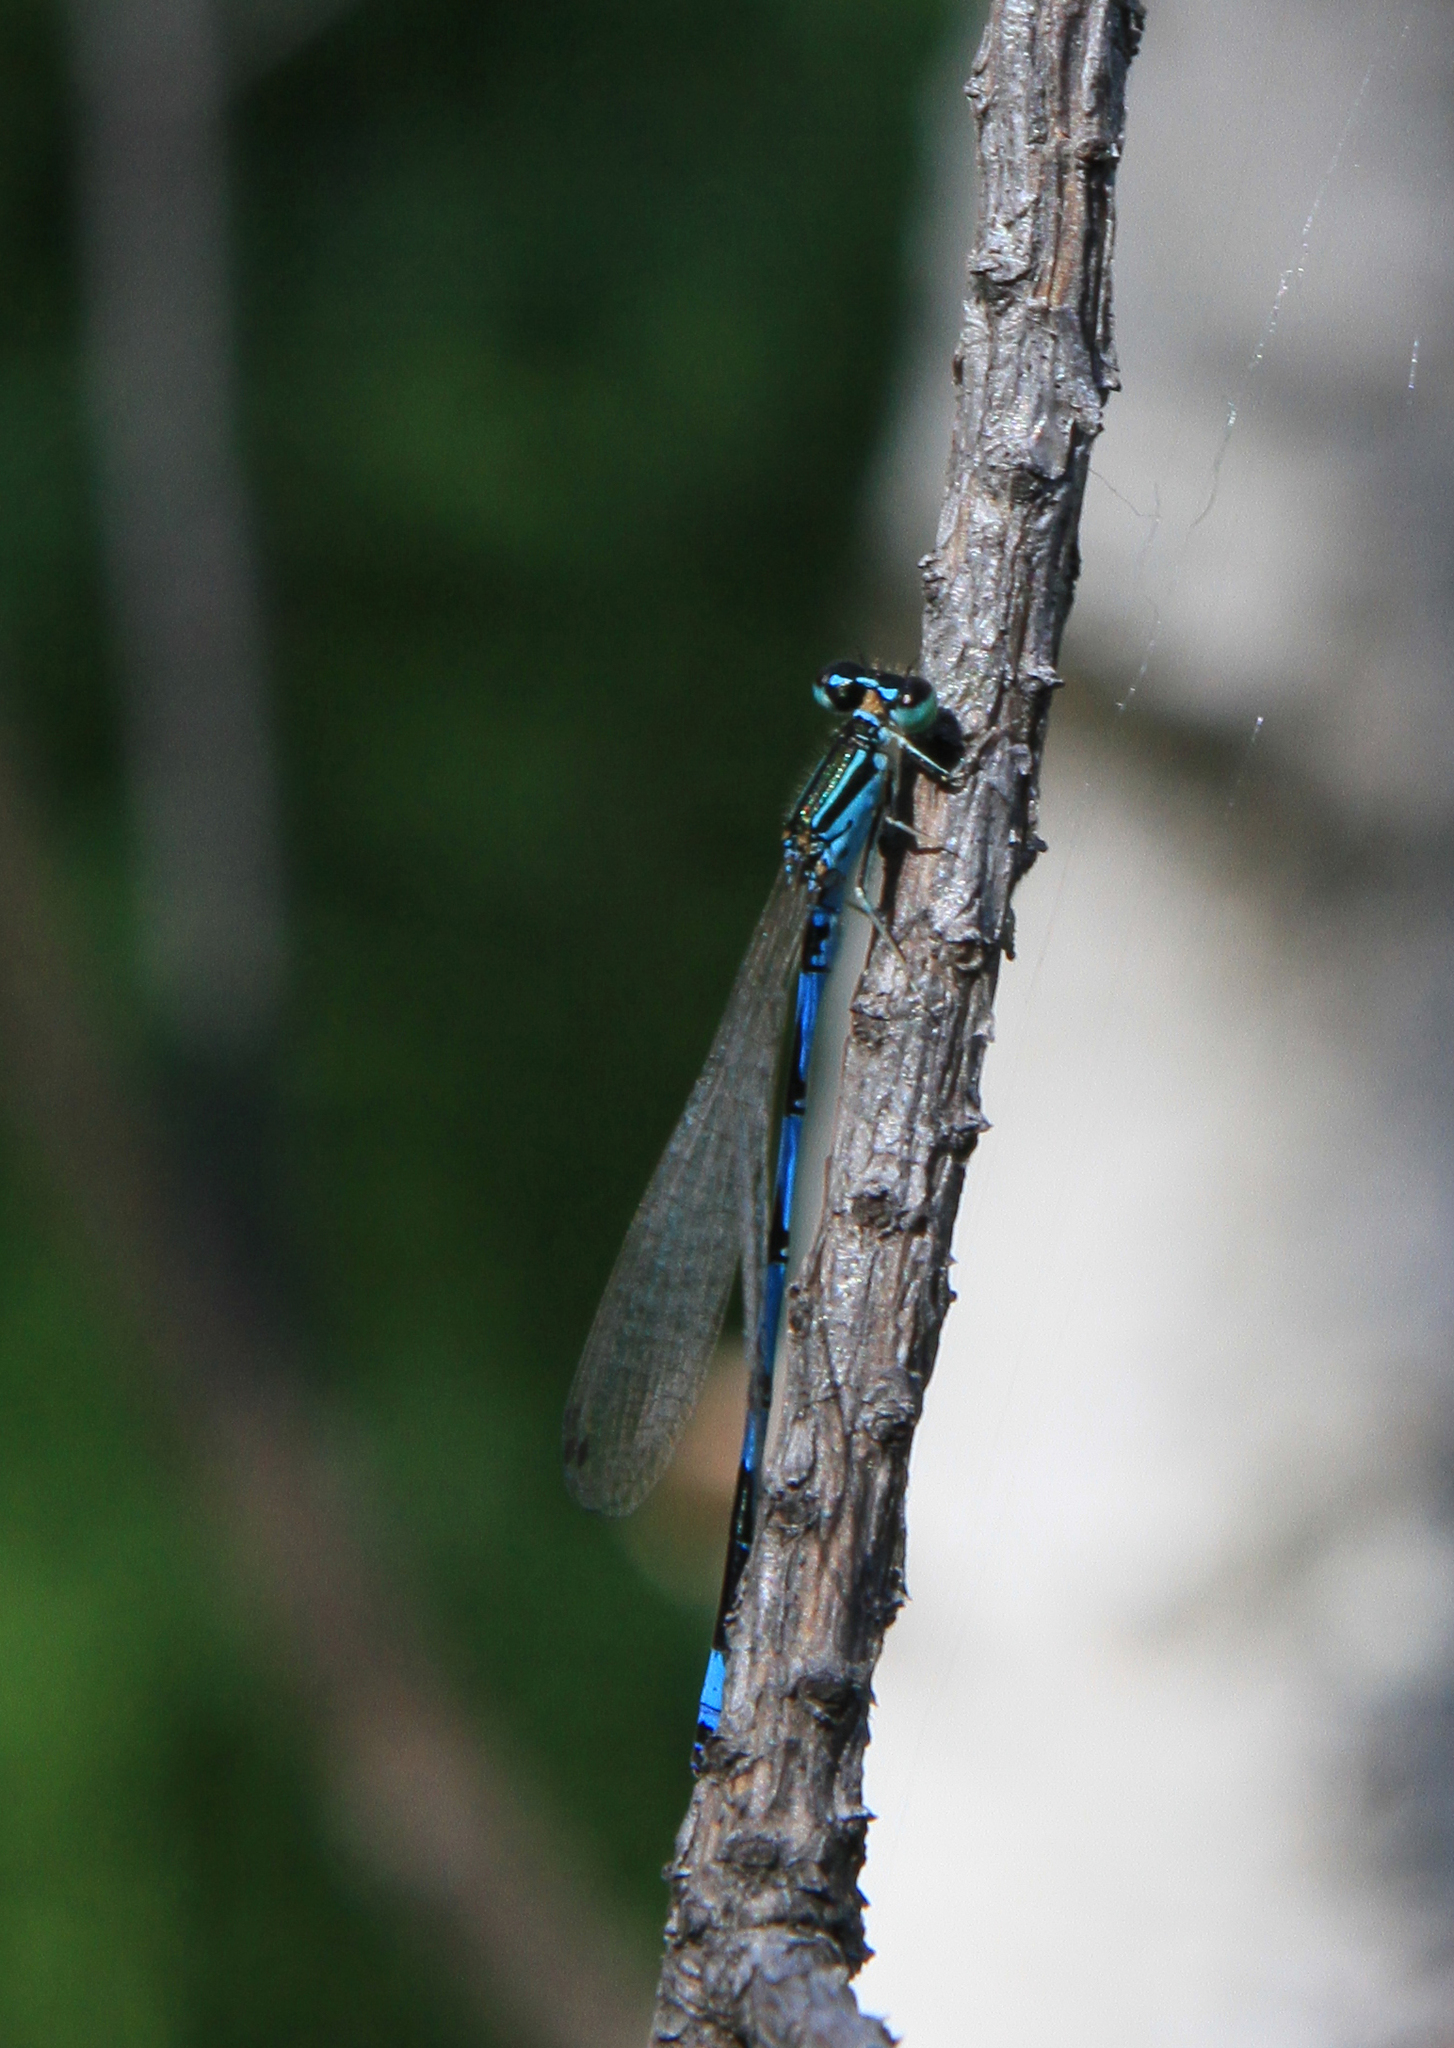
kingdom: Animalia
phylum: Arthropoda
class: Insecta
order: Odonata
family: Coenagrionidae
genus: Coenagrion
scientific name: Coenagrion ecornutum
